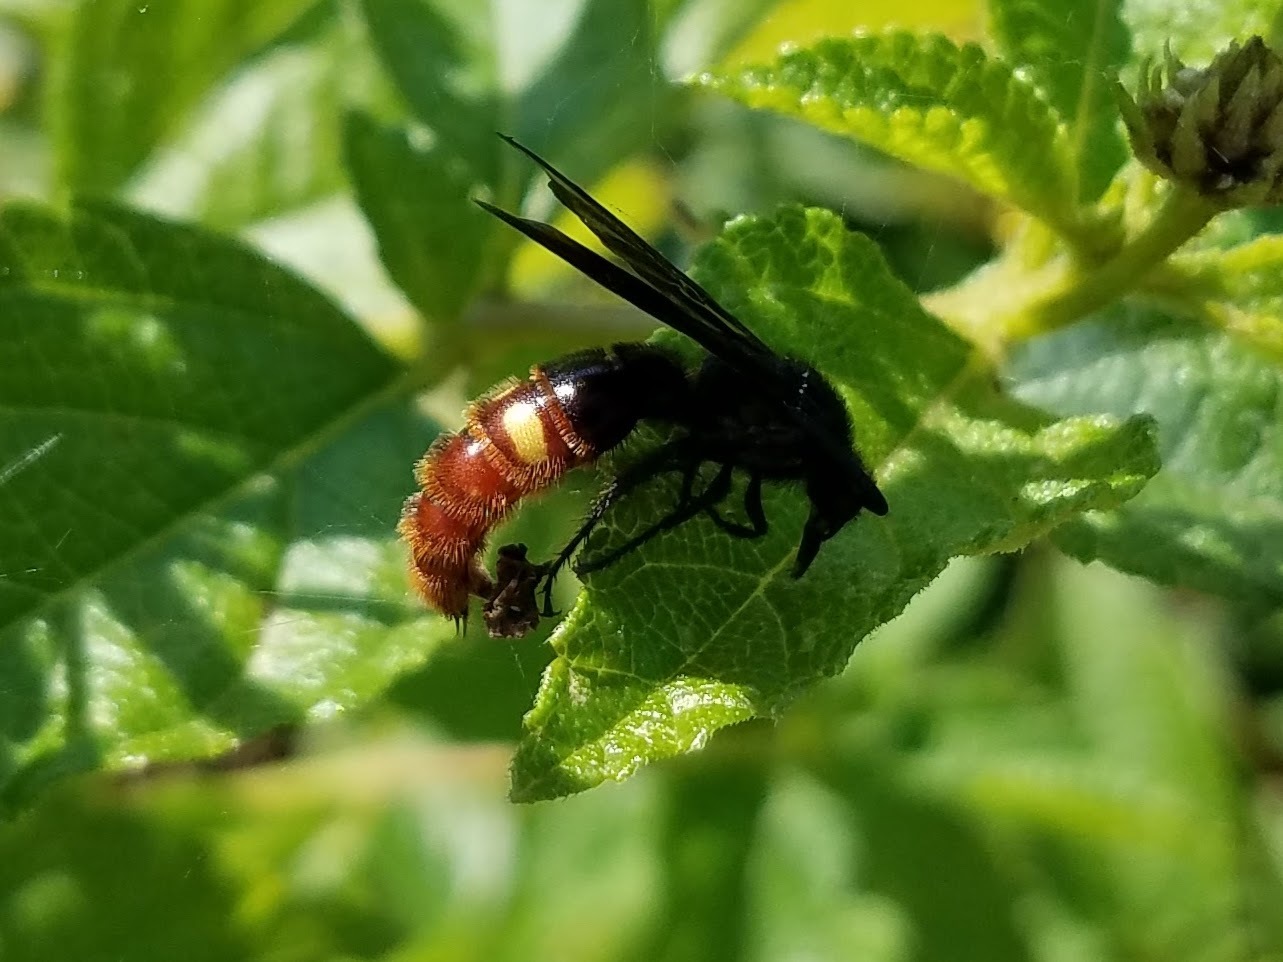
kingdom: Animalia
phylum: Arthropoda
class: Insecta
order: Hymenoptera
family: Scoliidae
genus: Scolia
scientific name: Scolia dubia
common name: Blue-winged scoliid wasp
